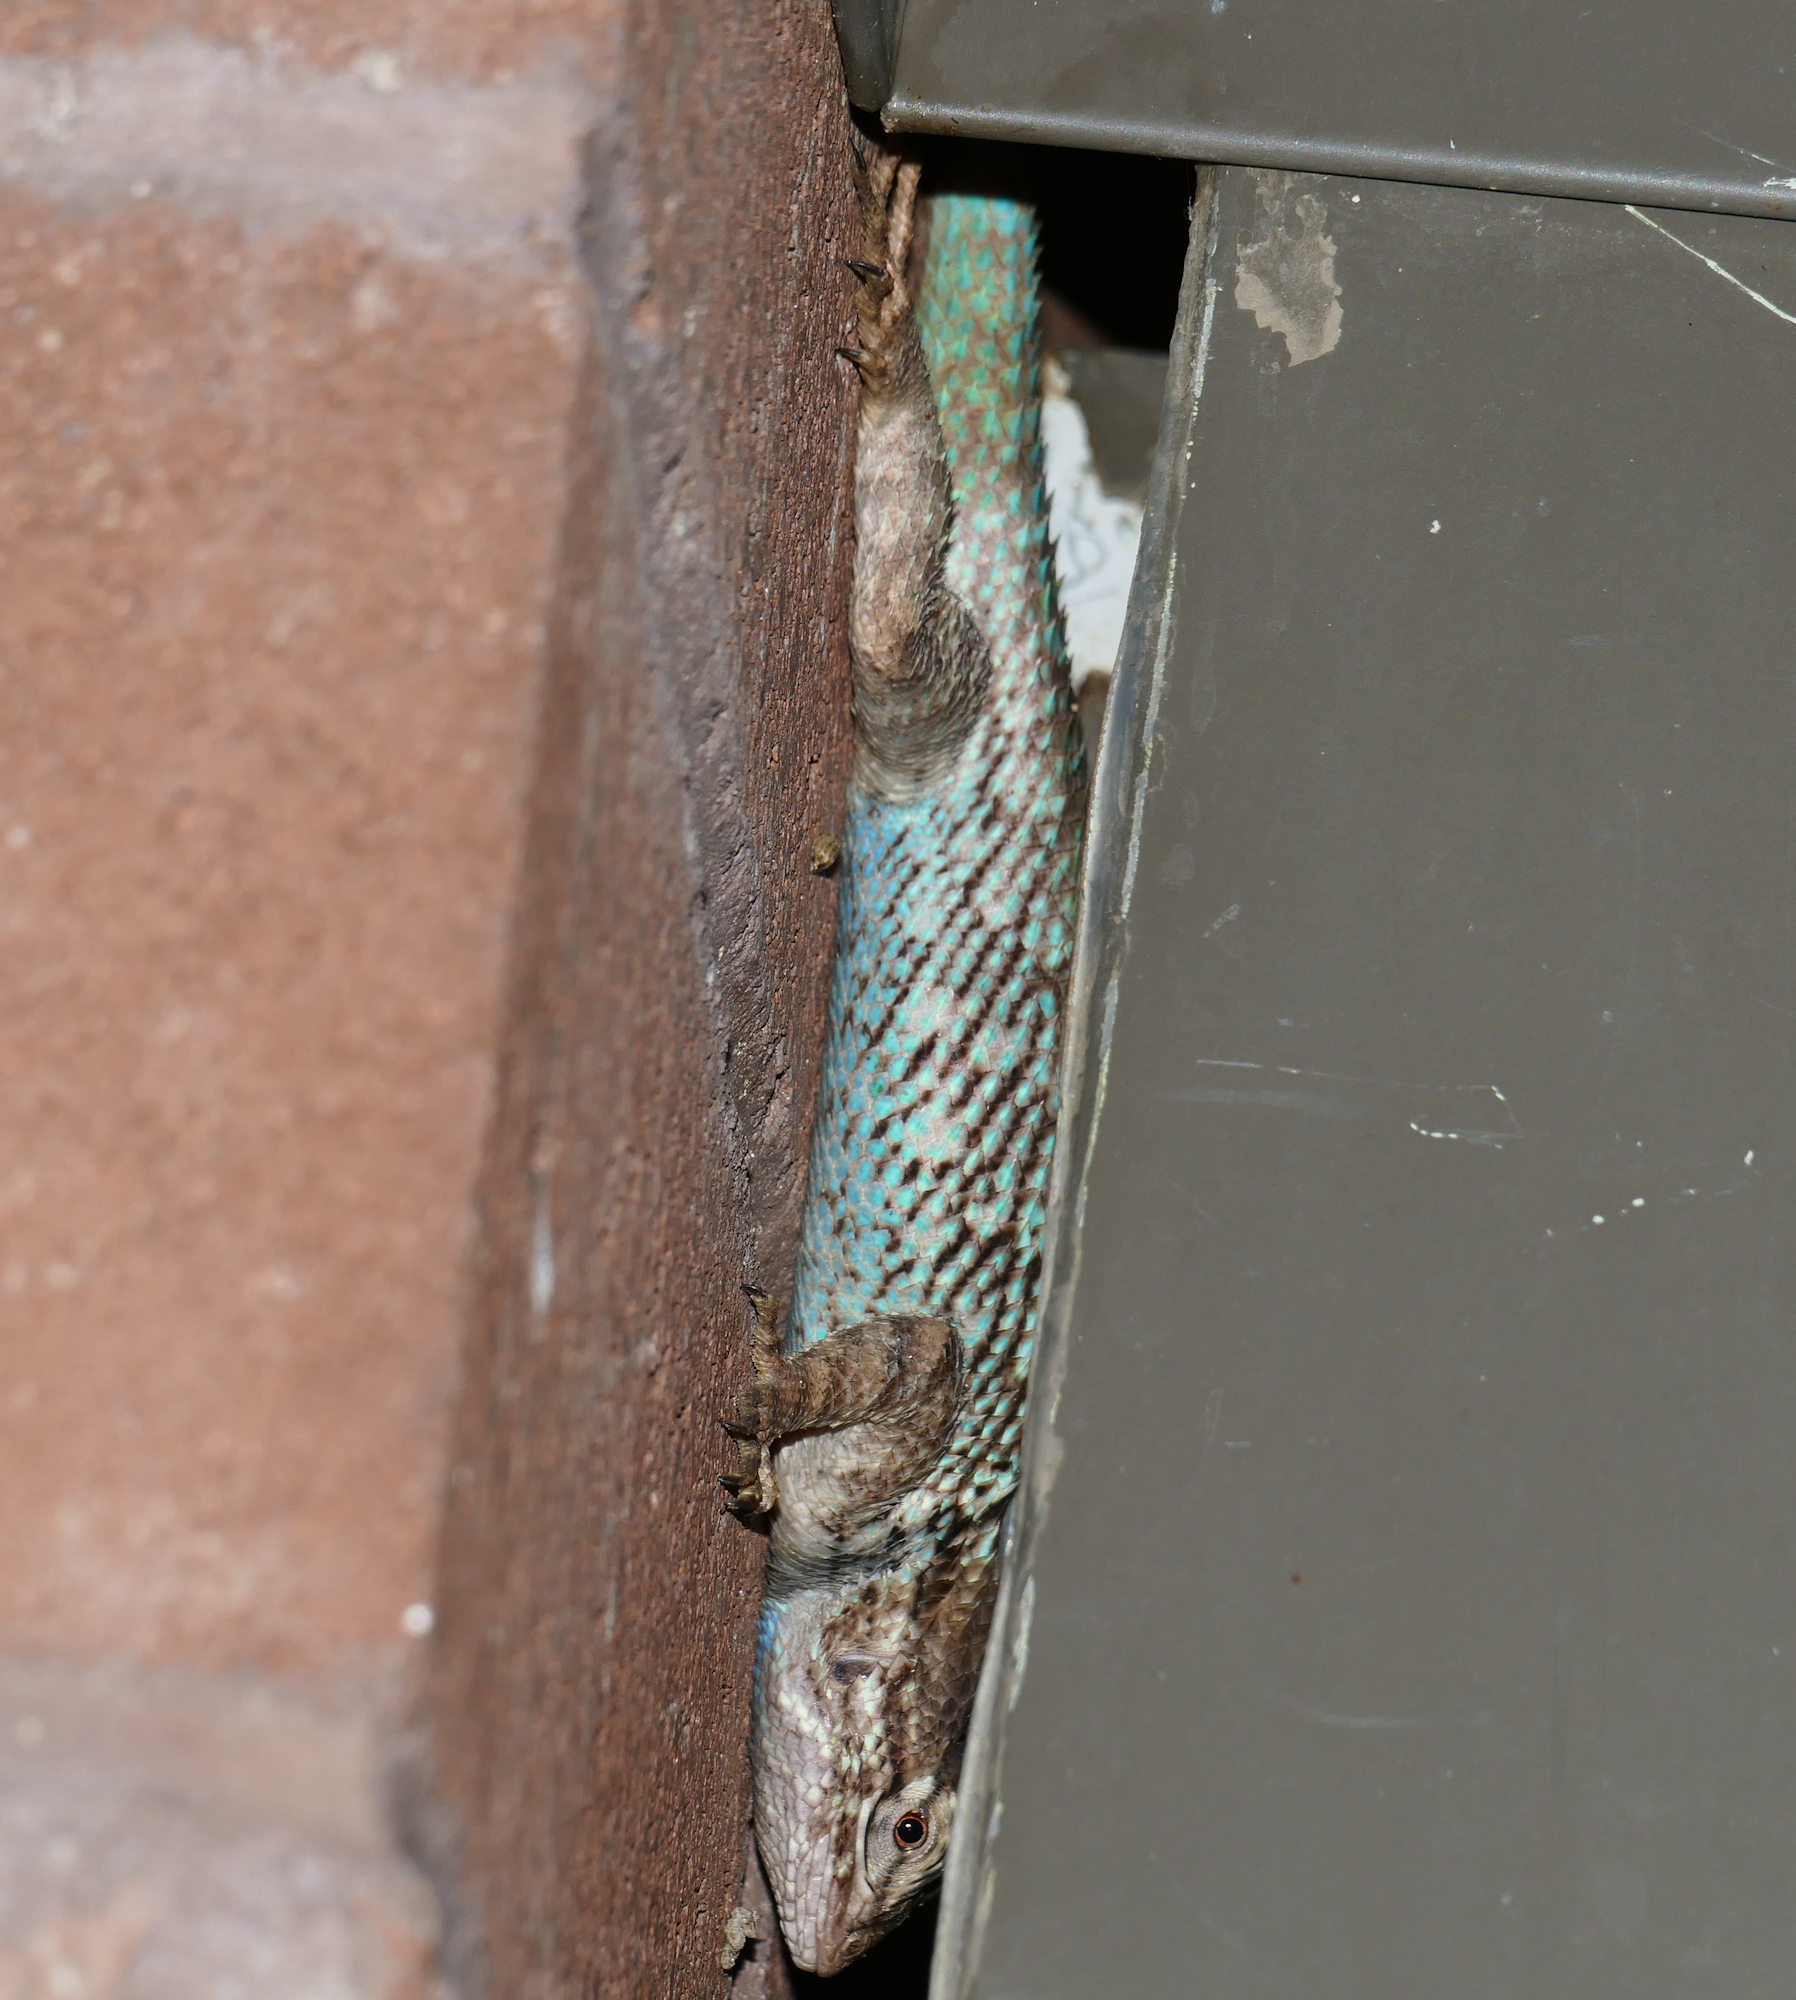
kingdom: Animalia
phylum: Chordata
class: Squamata
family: Phrynosomatidae
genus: Sceloporus
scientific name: Sceloporus clarkii
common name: Clark's spiny lizard
